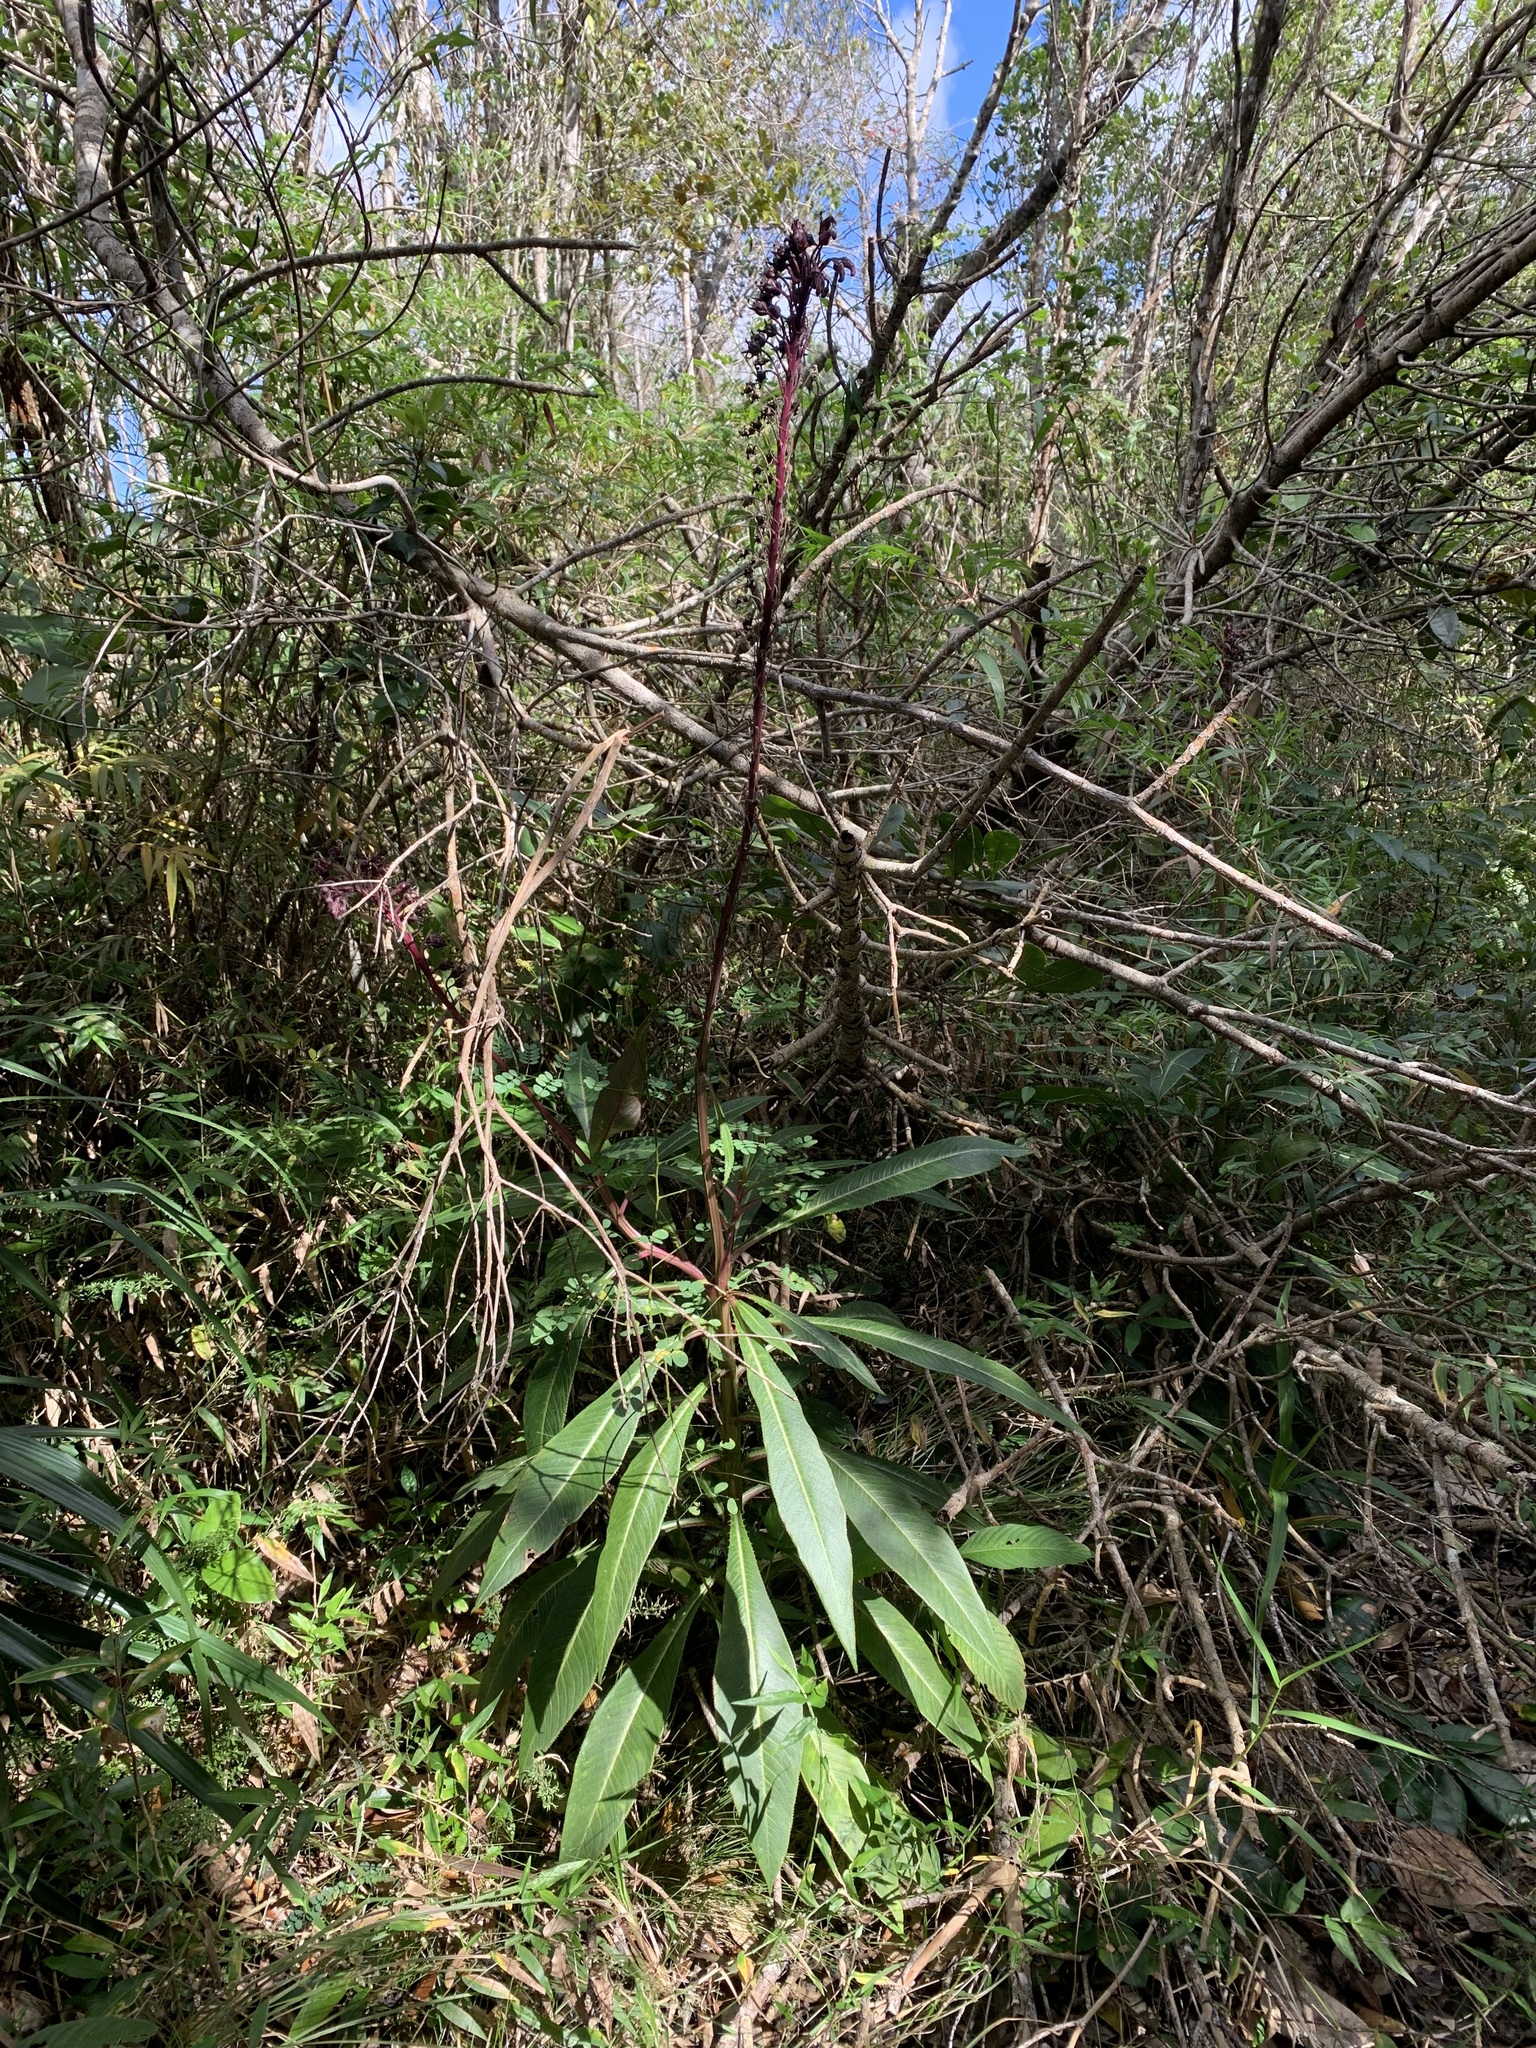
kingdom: Plantae
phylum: Tracheophyta
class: Magnoliopsida
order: Asterales
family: Campanulaceae
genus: Lobelia
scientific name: Lobelia robusta
